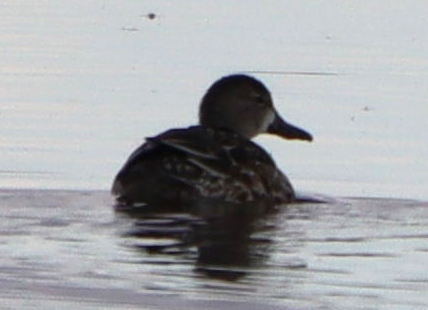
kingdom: Animalia
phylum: Chordata
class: Aves
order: Anseriformes
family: Anatidae
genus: Spatula
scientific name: Spatula discors
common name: Blue-winged teal
